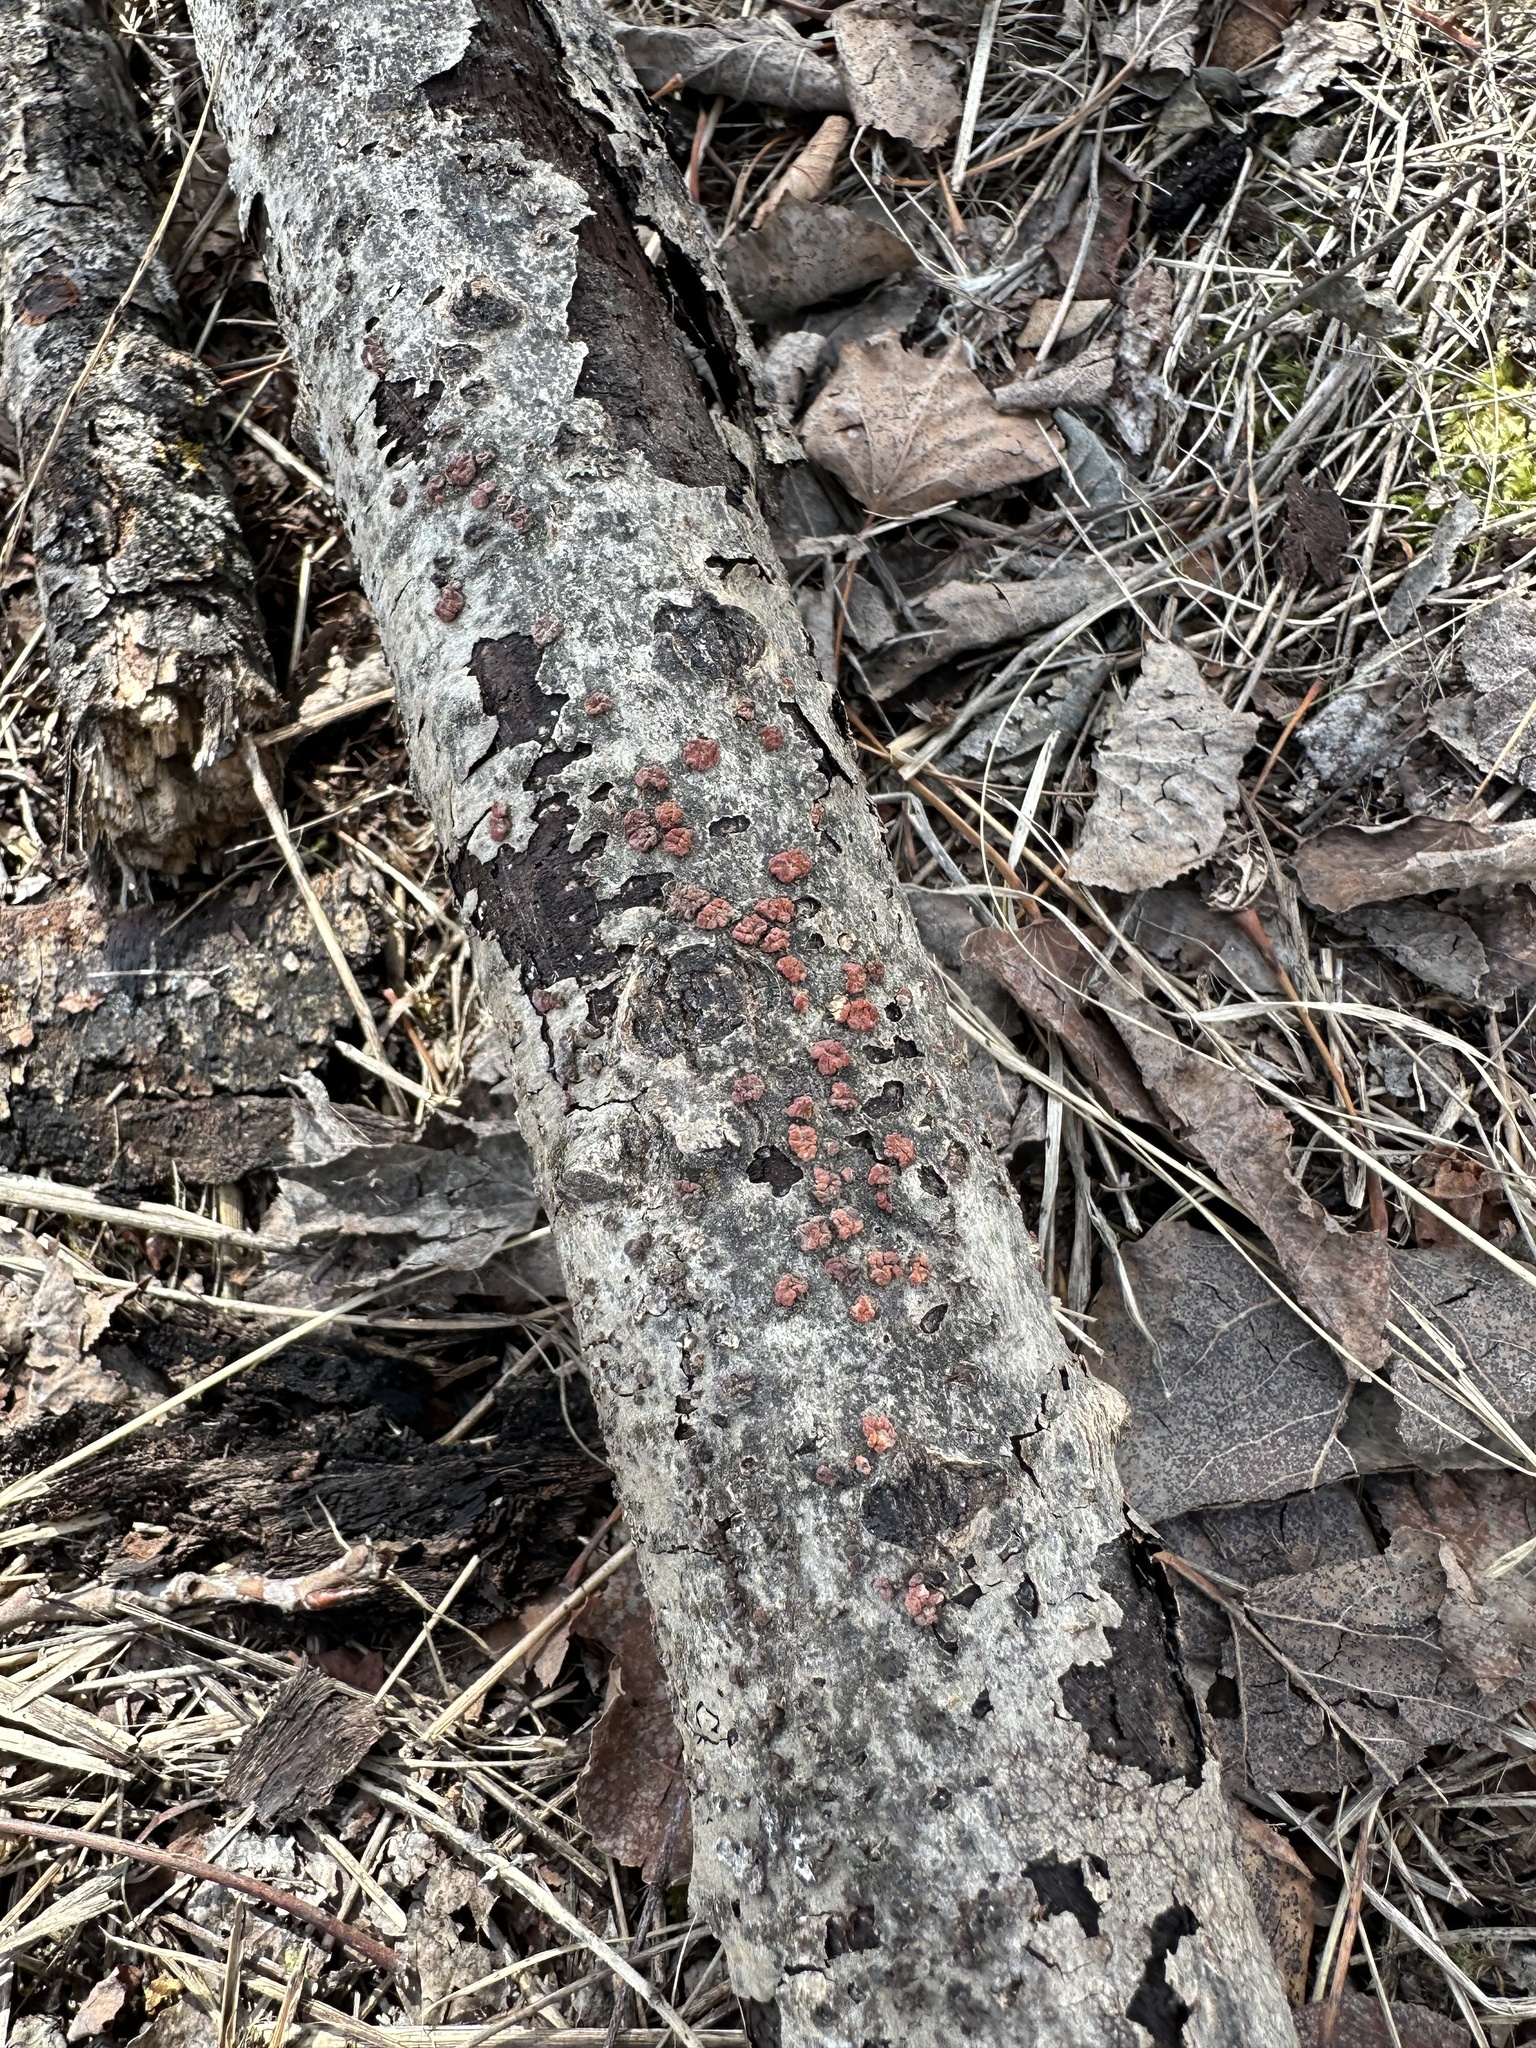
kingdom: Fungi
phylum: Basidiomycota
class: Agaricomycetes
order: Russulales
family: Peniophoraceae
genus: Peniophora
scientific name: Peniophora rufa
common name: Red tree brain fungus
